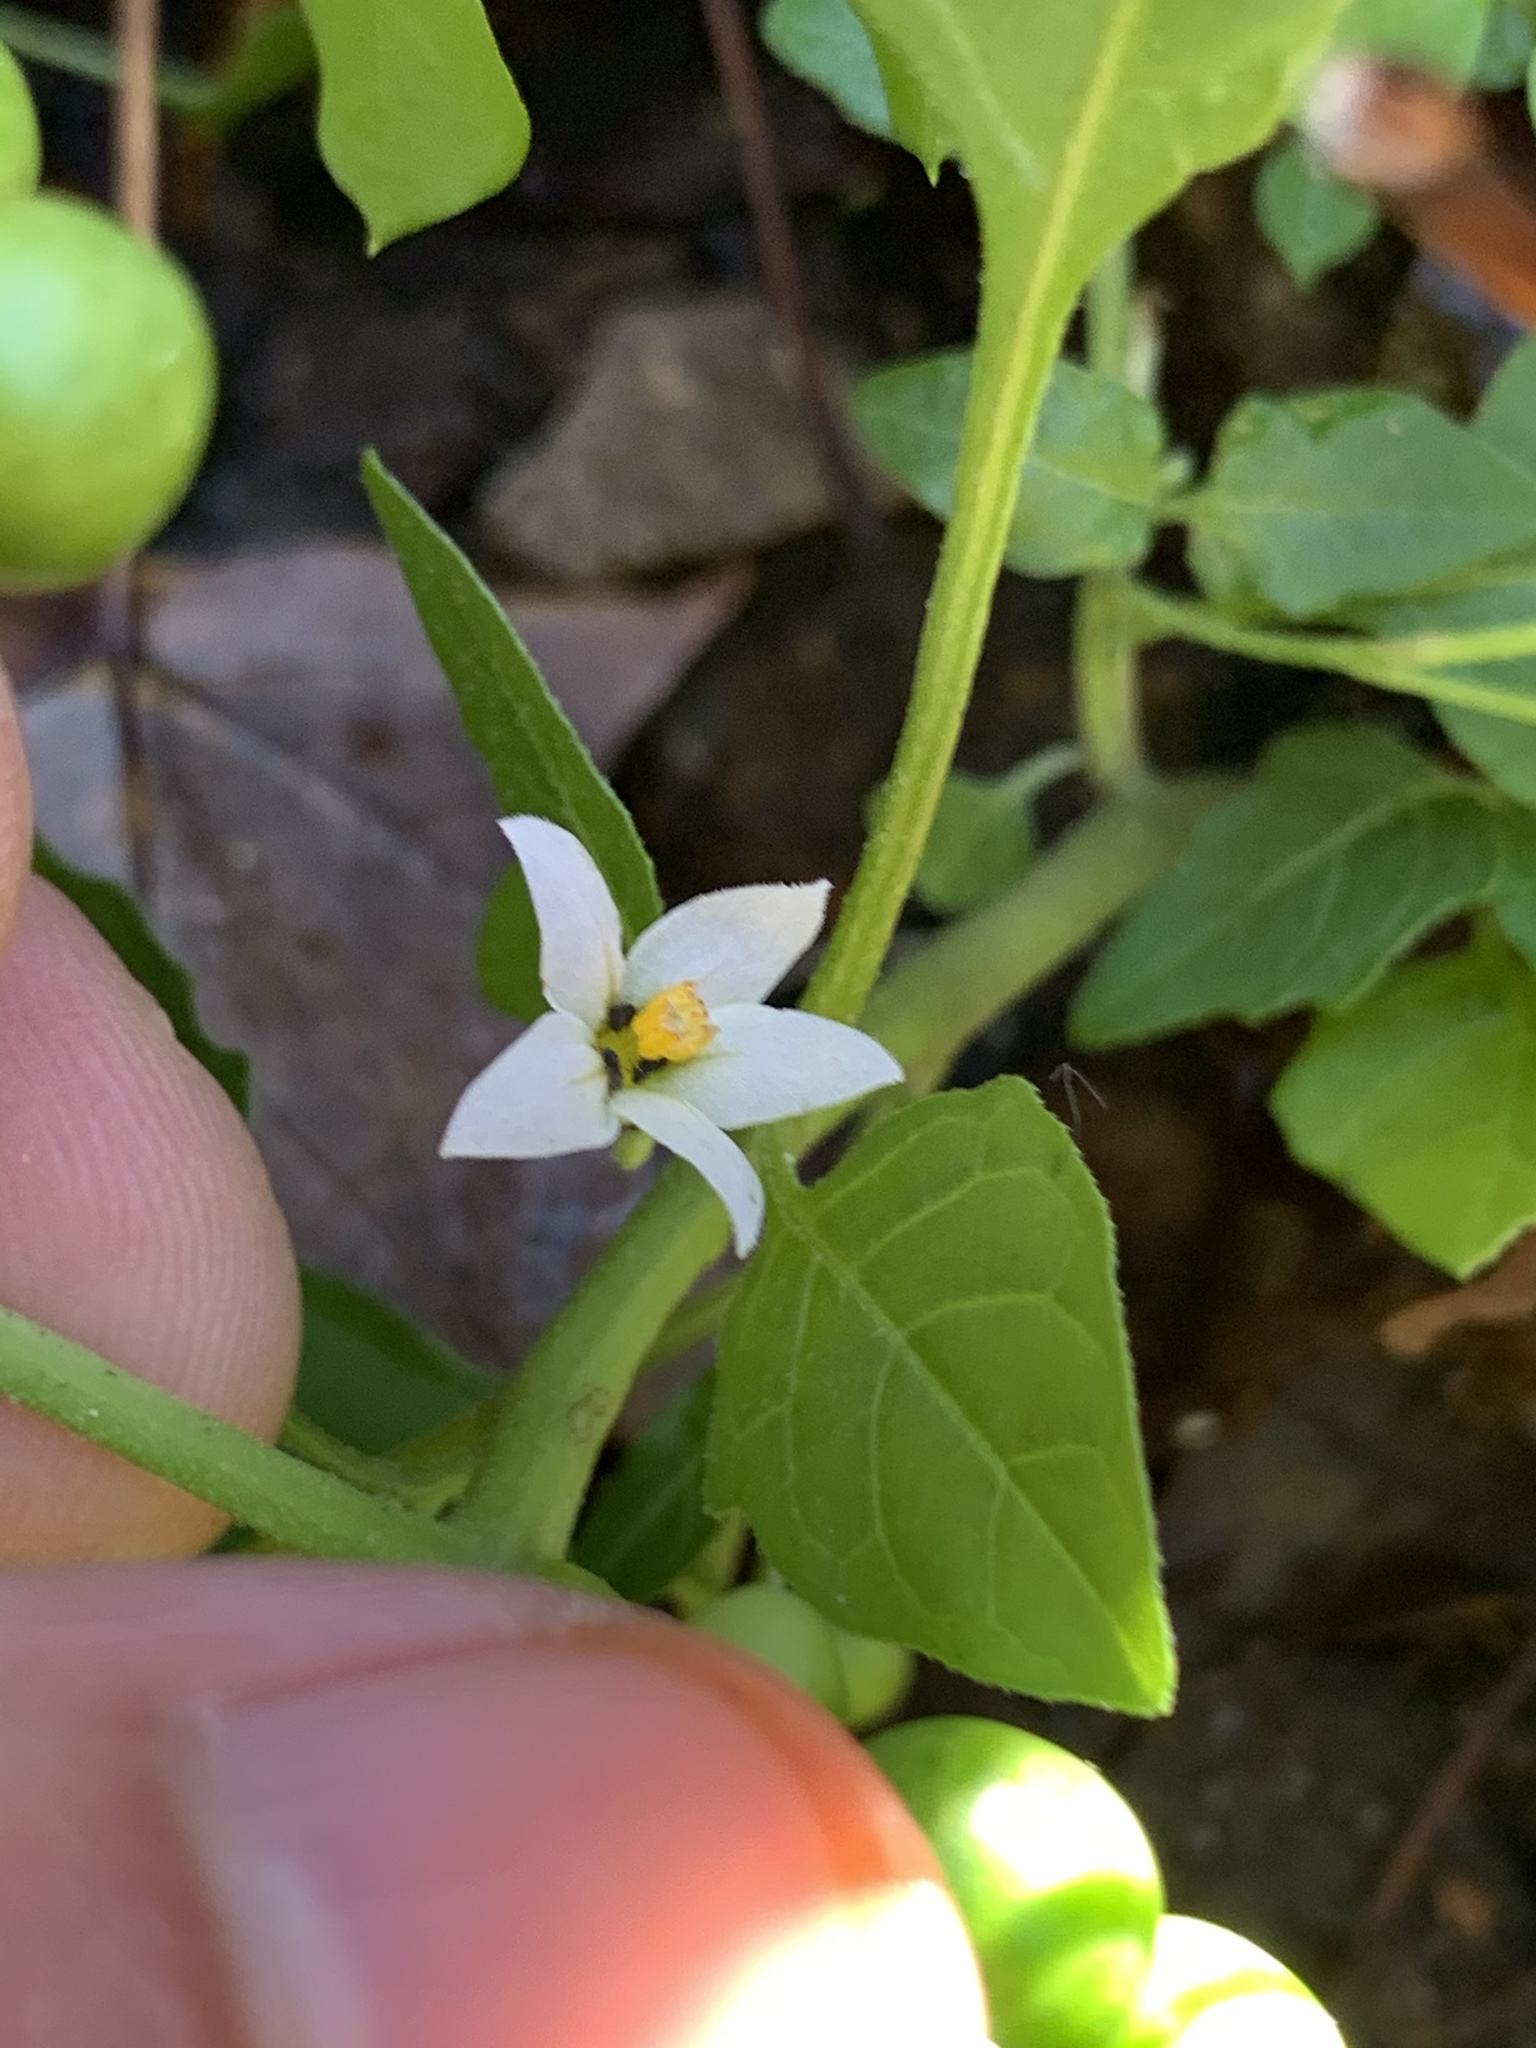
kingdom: Plantae
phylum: Tracheophyta
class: Magnoliopsida
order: Solanales
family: Solanaceae
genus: Solanum
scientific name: Solanum emulans
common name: Eastern black nightshade
